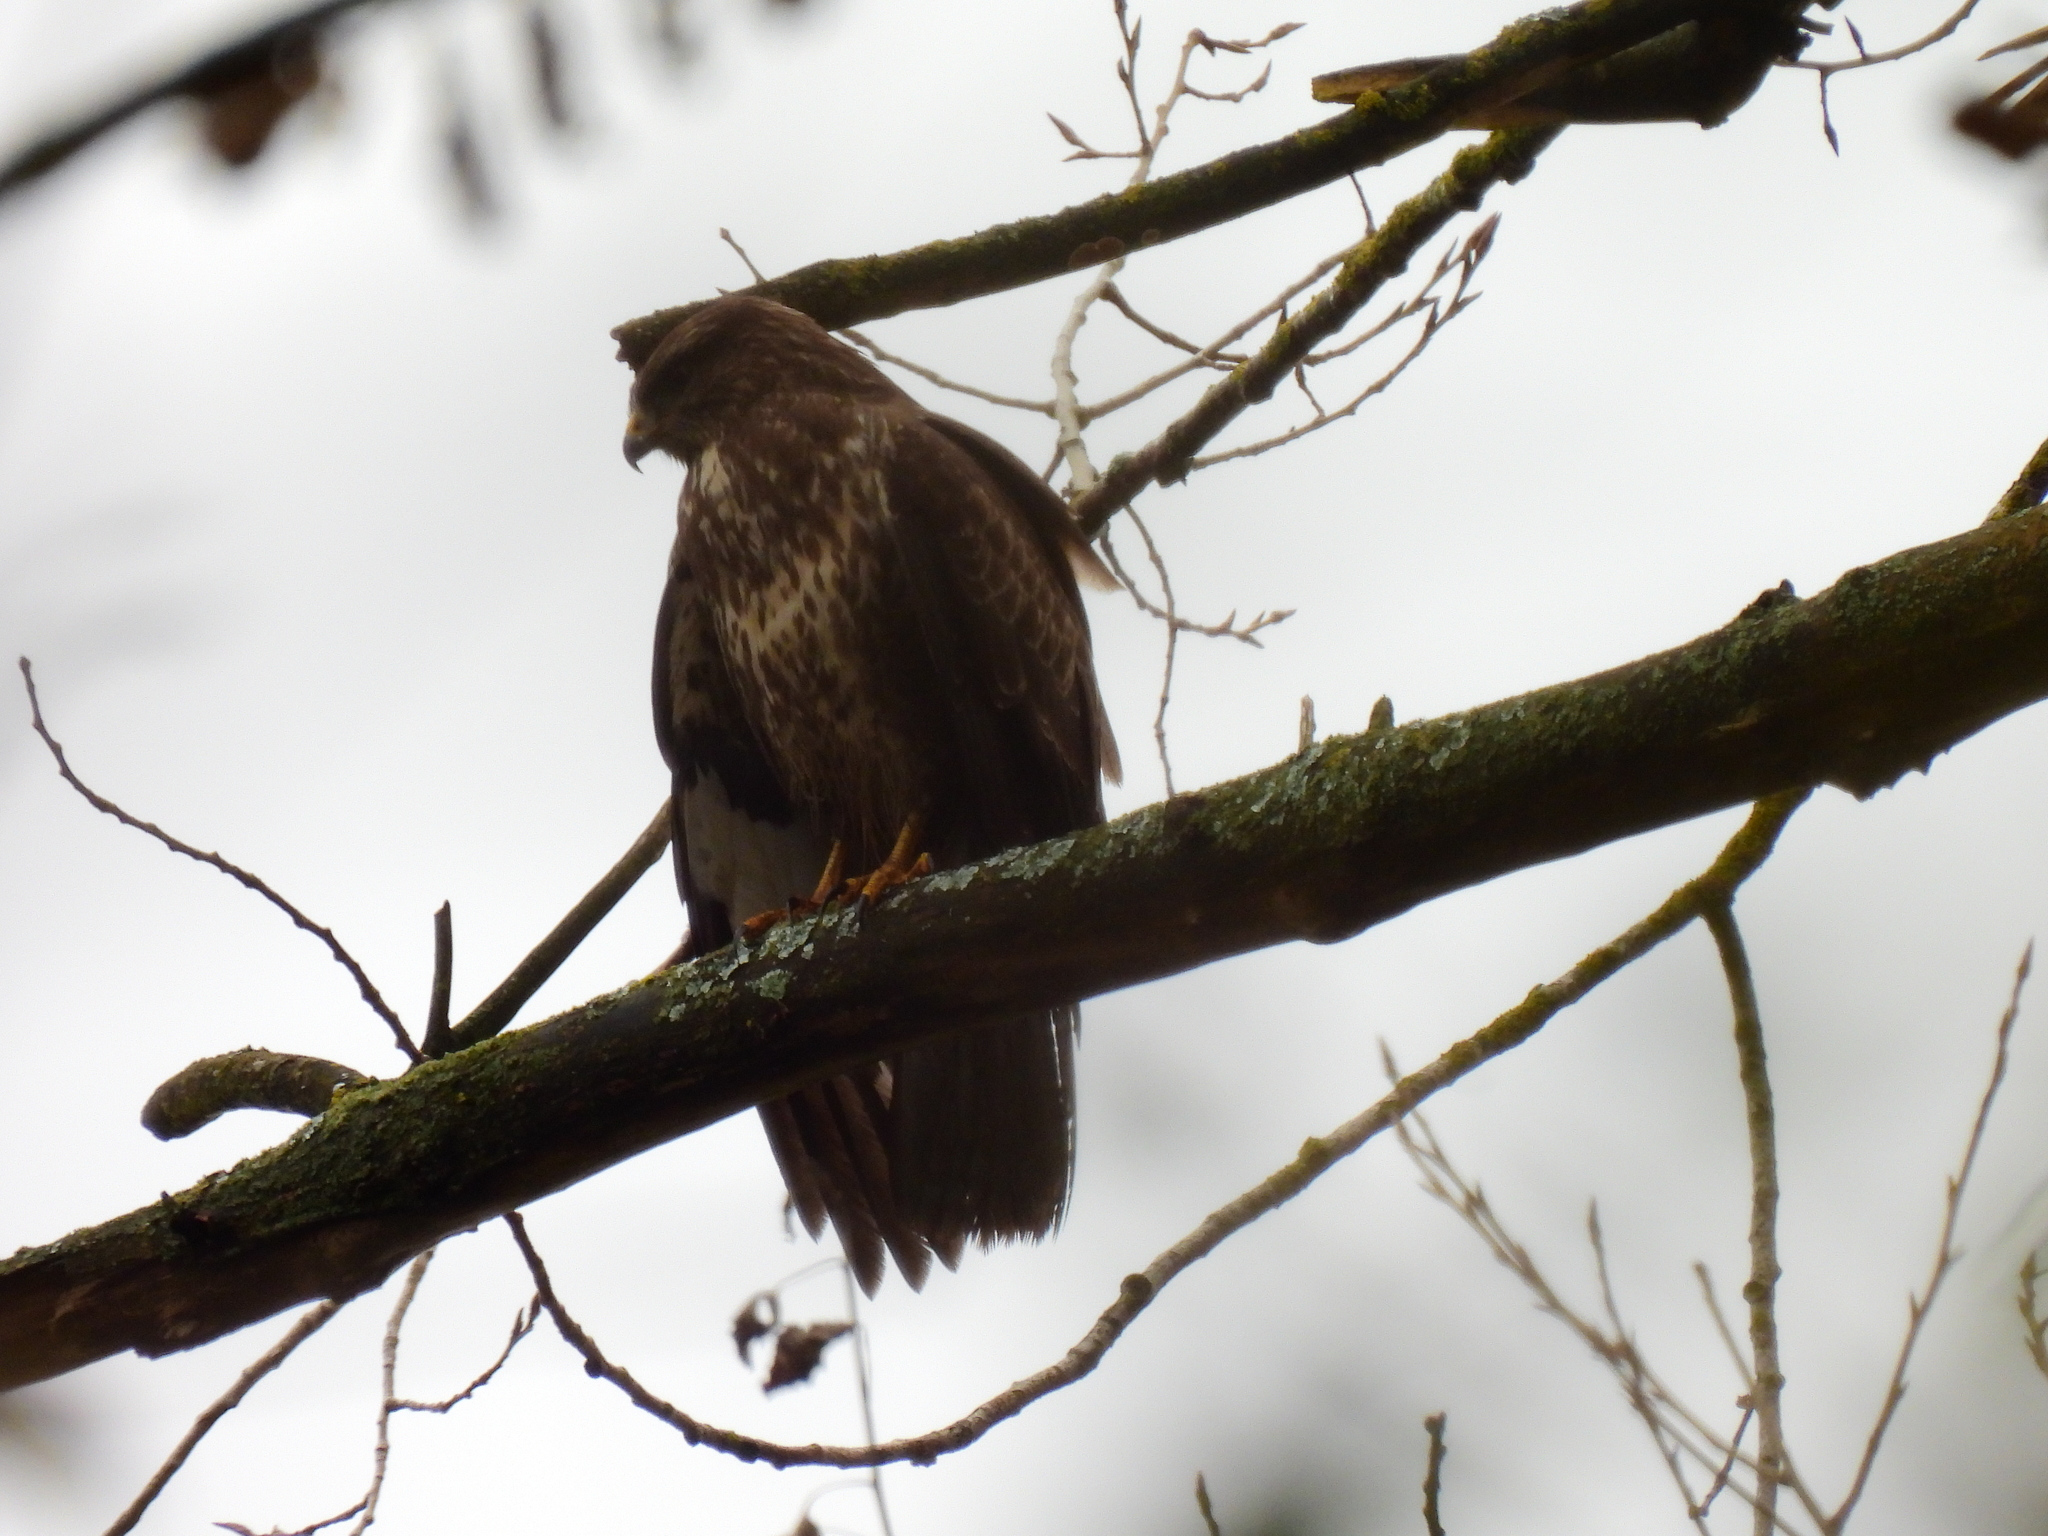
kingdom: Animalia
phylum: Chordata
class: Aves
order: Accipitriformes
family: Accipitridae
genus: Buteo
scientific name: Buteo buteo
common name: Common buzzard
